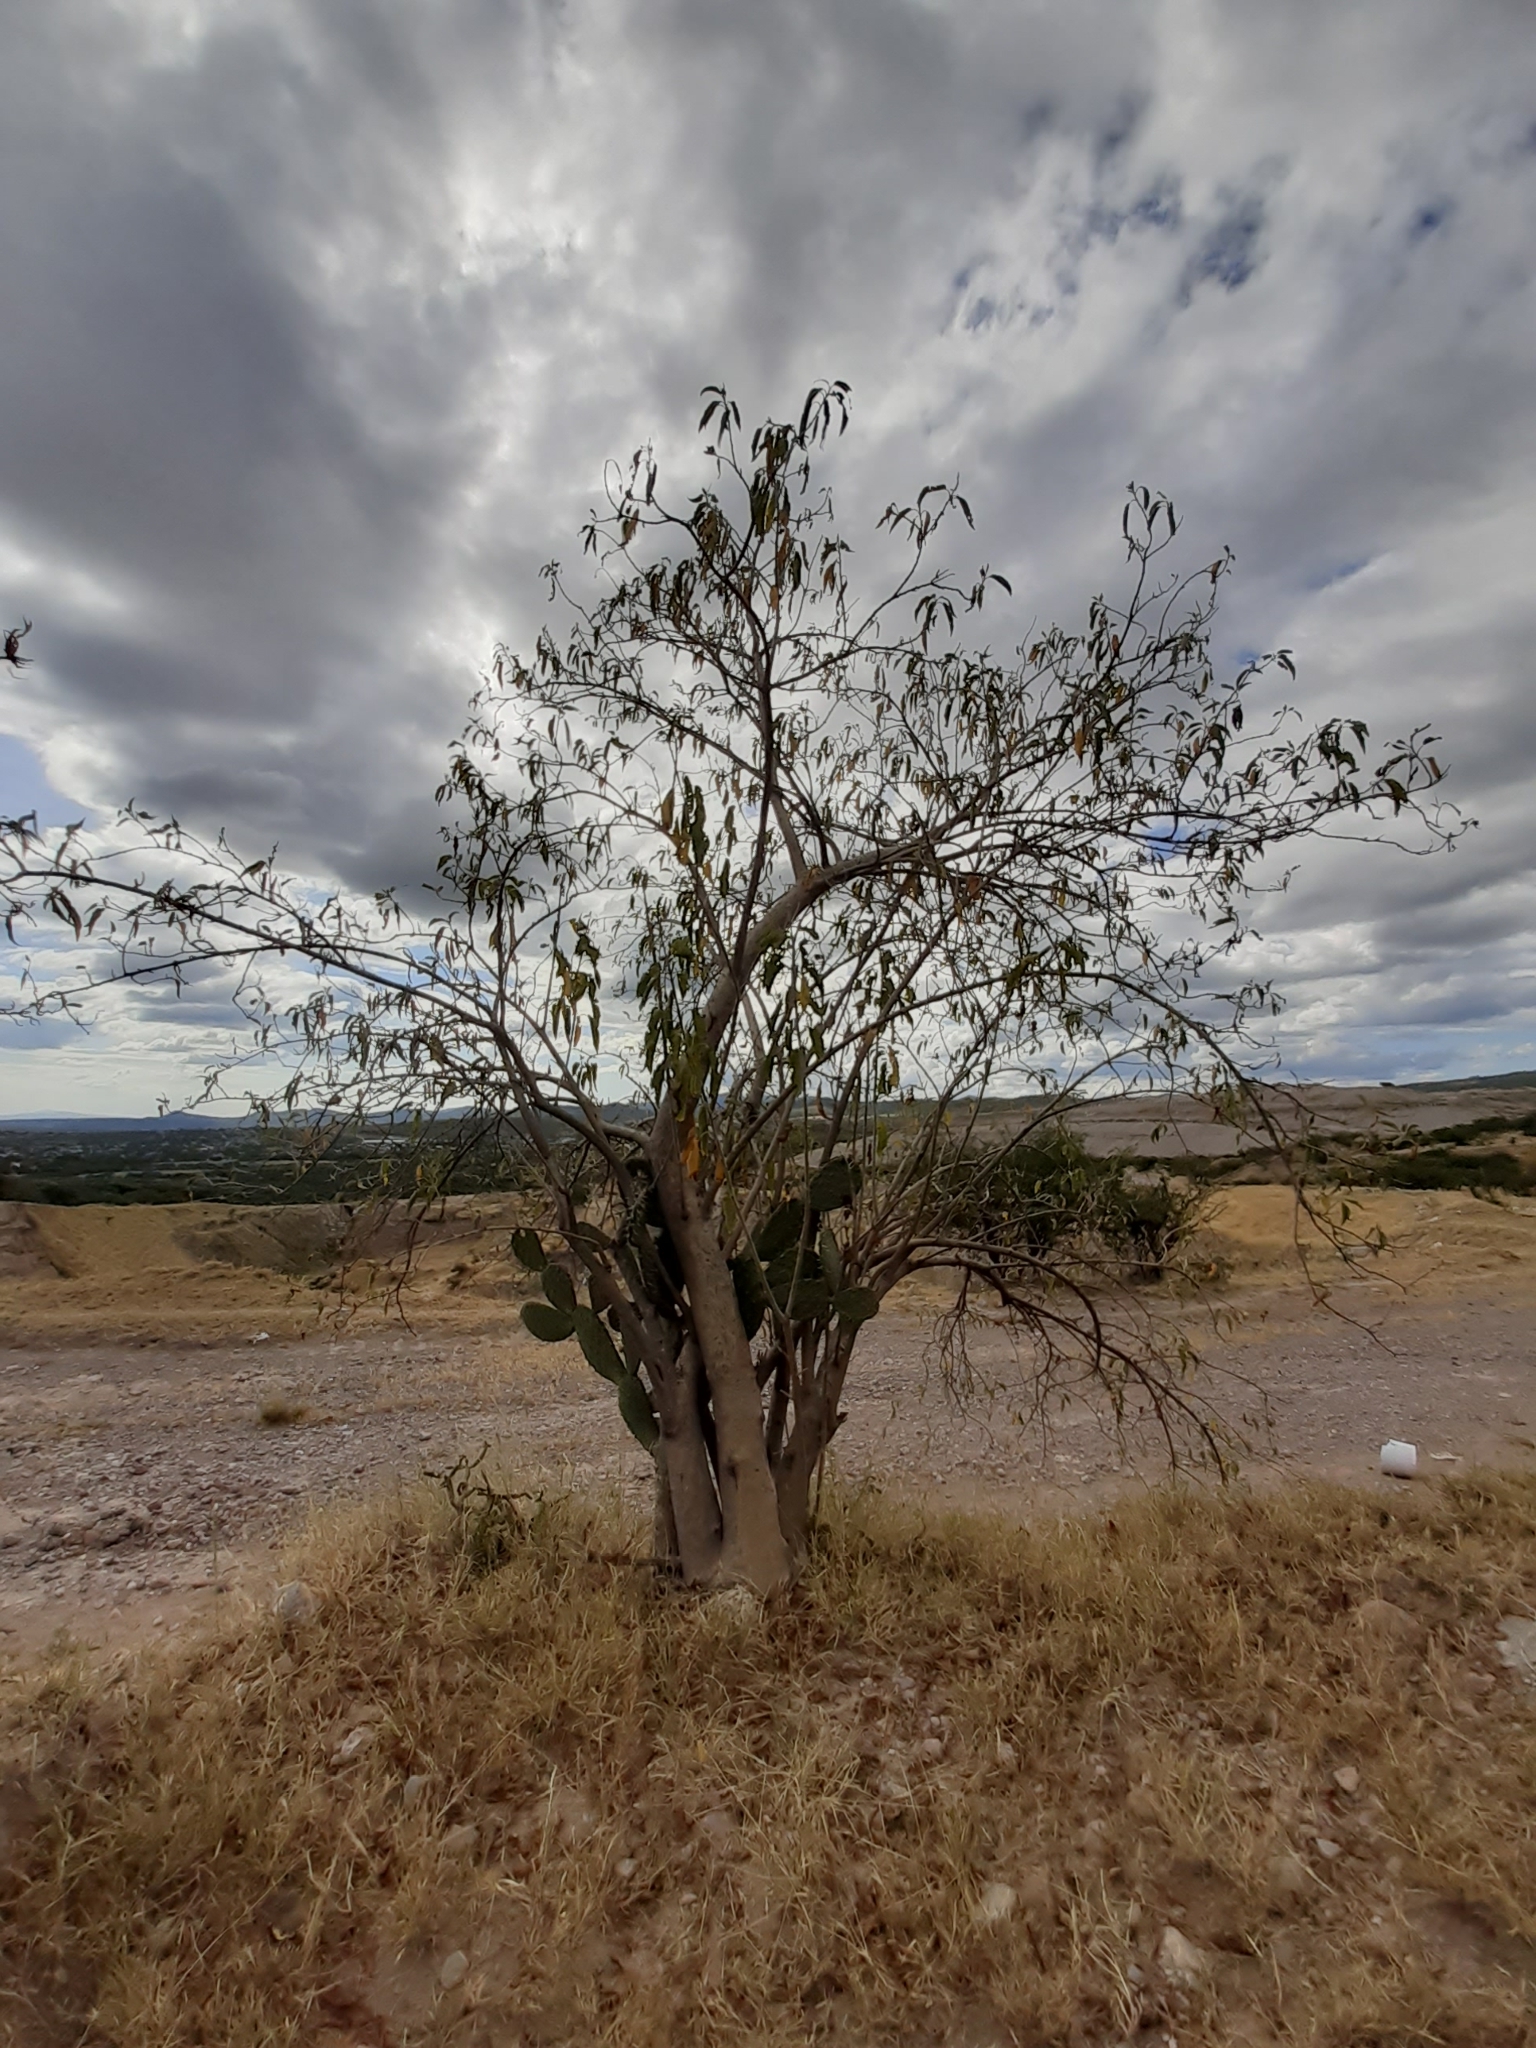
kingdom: Plantae
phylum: Tracheophyta
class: Magnoliopsida
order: Solanales
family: Convolvulaceae
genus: Ipomoea
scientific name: Ipomoea murucoides
